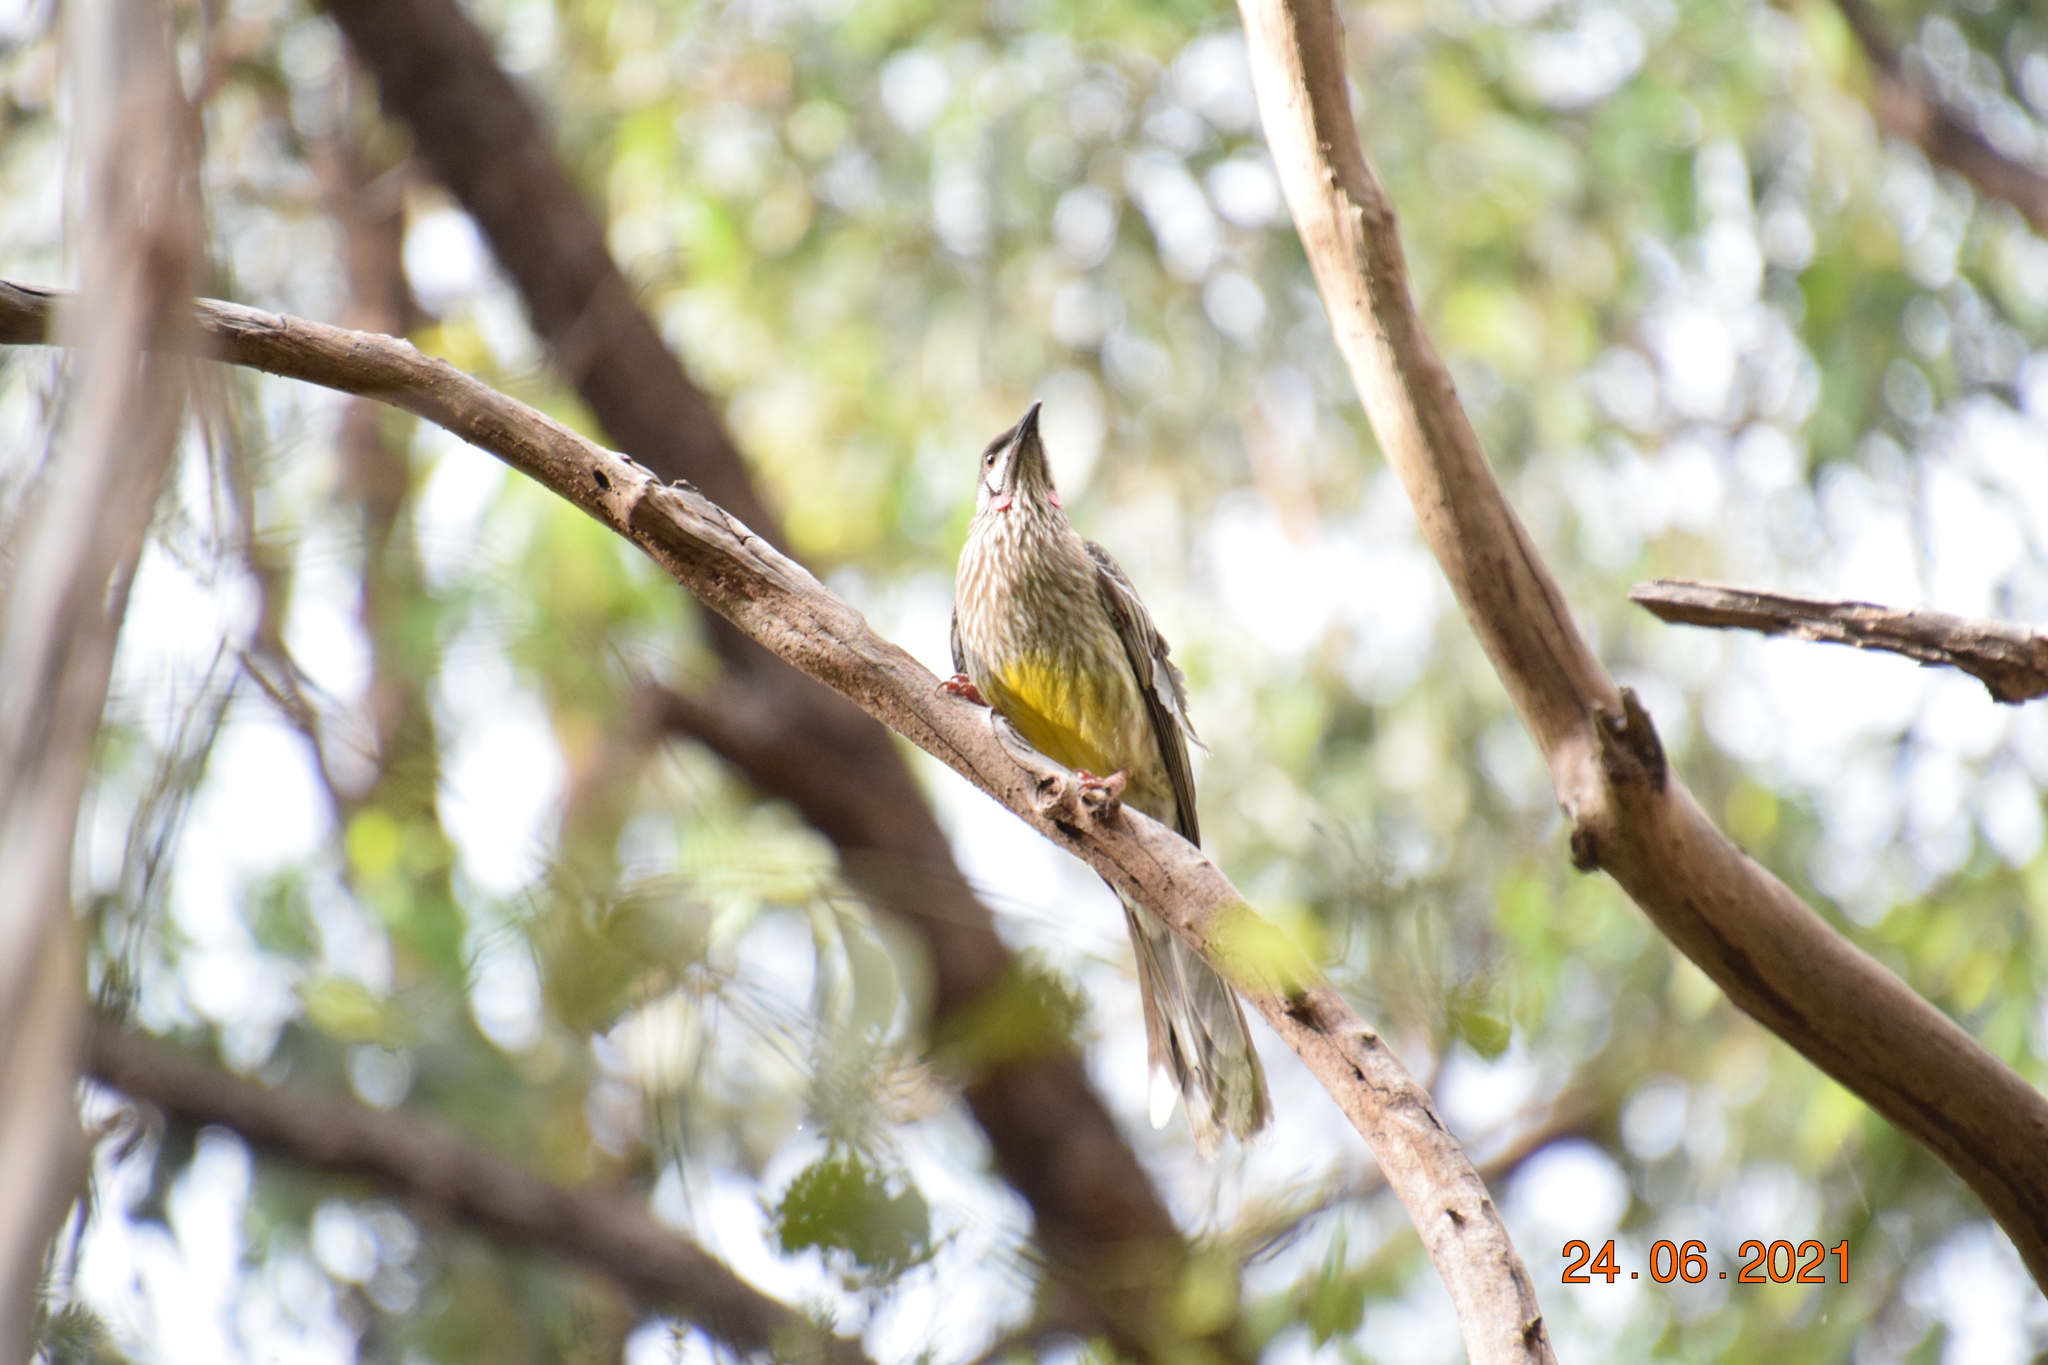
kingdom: Animalia
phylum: Chordata
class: Aves
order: Passeriformes
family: Meliphagidae
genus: Anthochaera
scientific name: Anthochaera carunculata
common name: Red wattlebird
